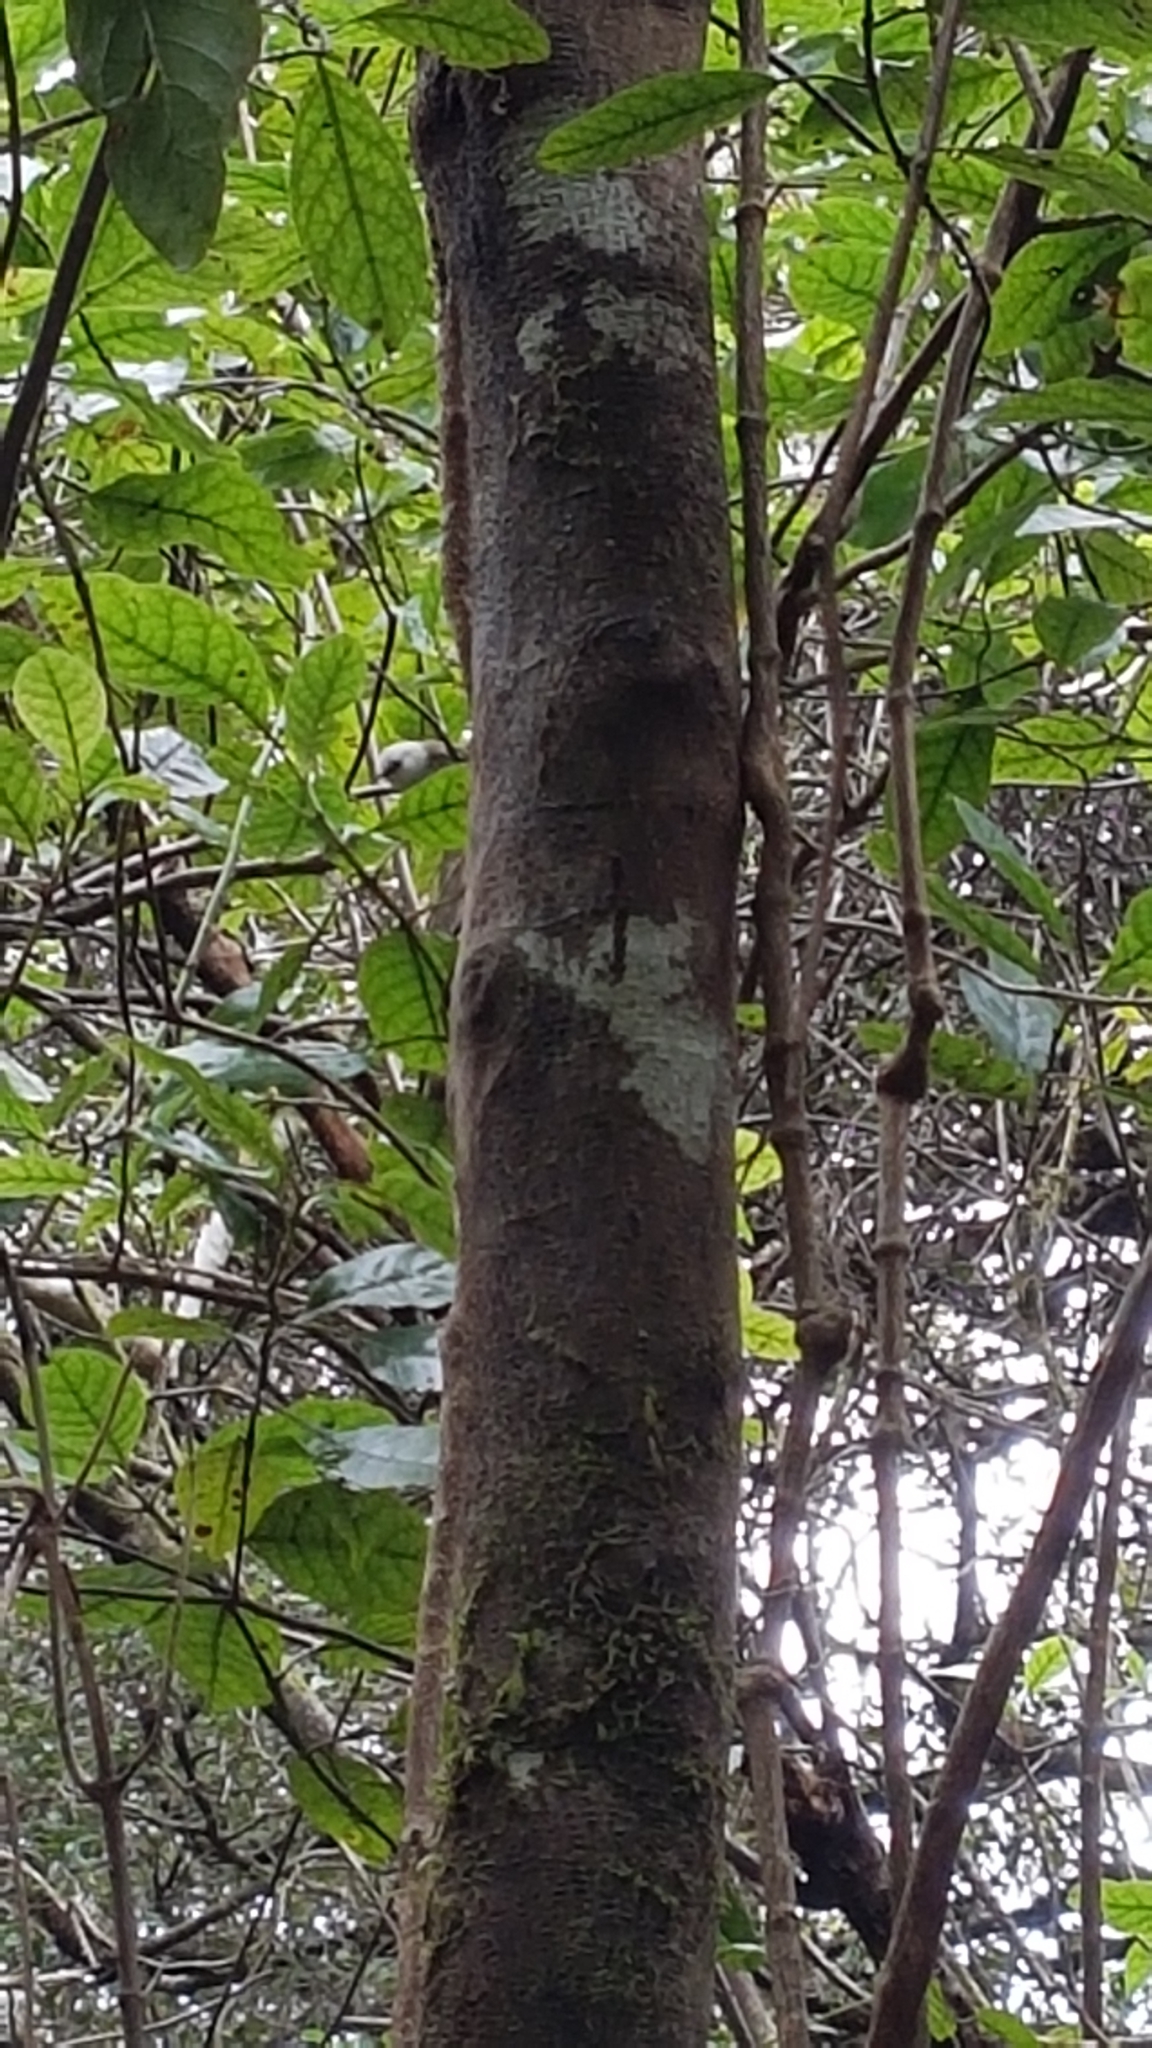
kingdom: Animalia
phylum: Chordata
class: Aves
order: Passeriformes
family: Acanthizidae
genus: Mohoua
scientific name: Mohoua albicilla
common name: Whitehead
